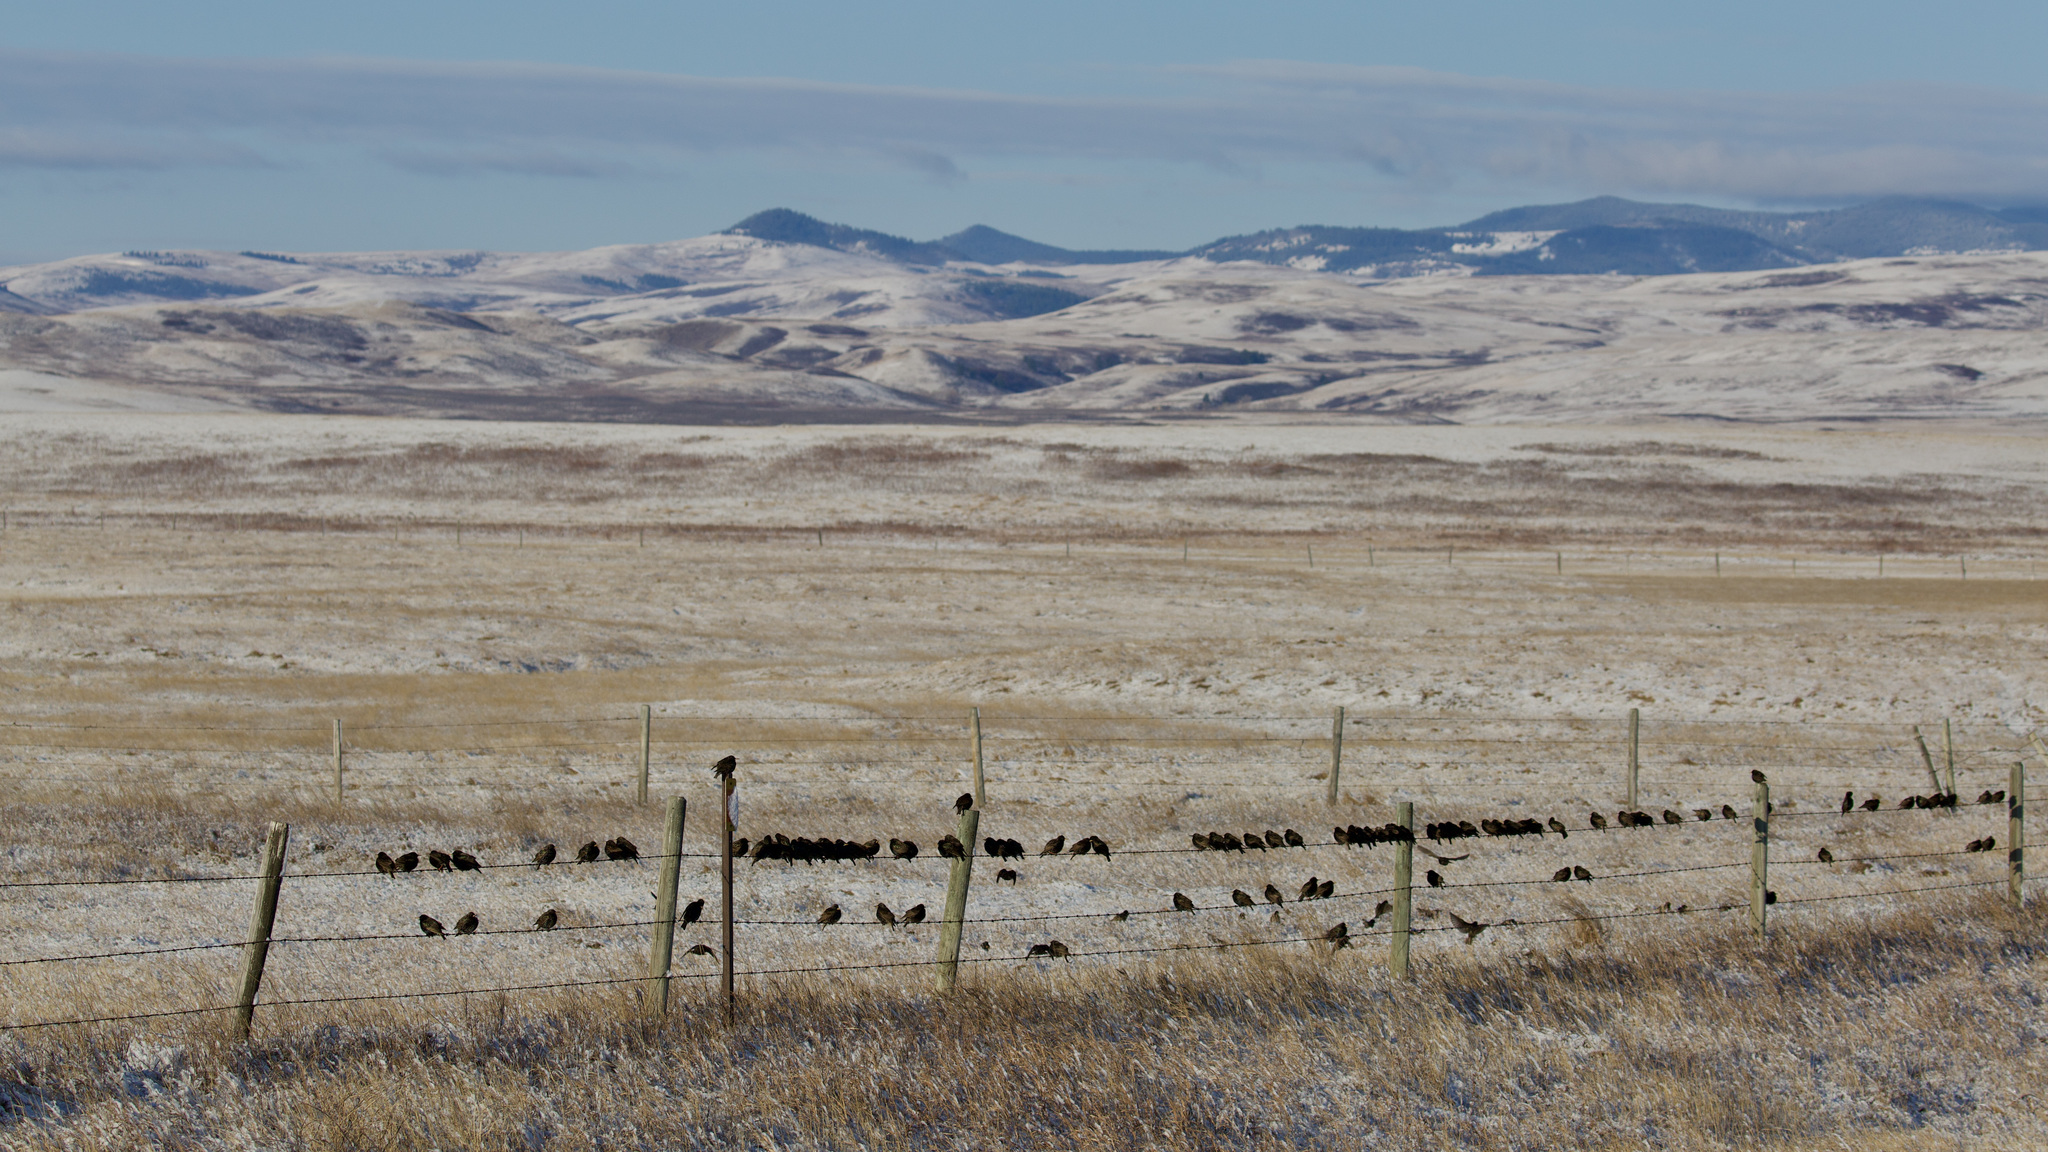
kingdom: Animalia
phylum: Chordata
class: Aves
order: Passeriformes
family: Sturnidae
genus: Sturnus
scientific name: Sturnus vulgaris
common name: Common starling
